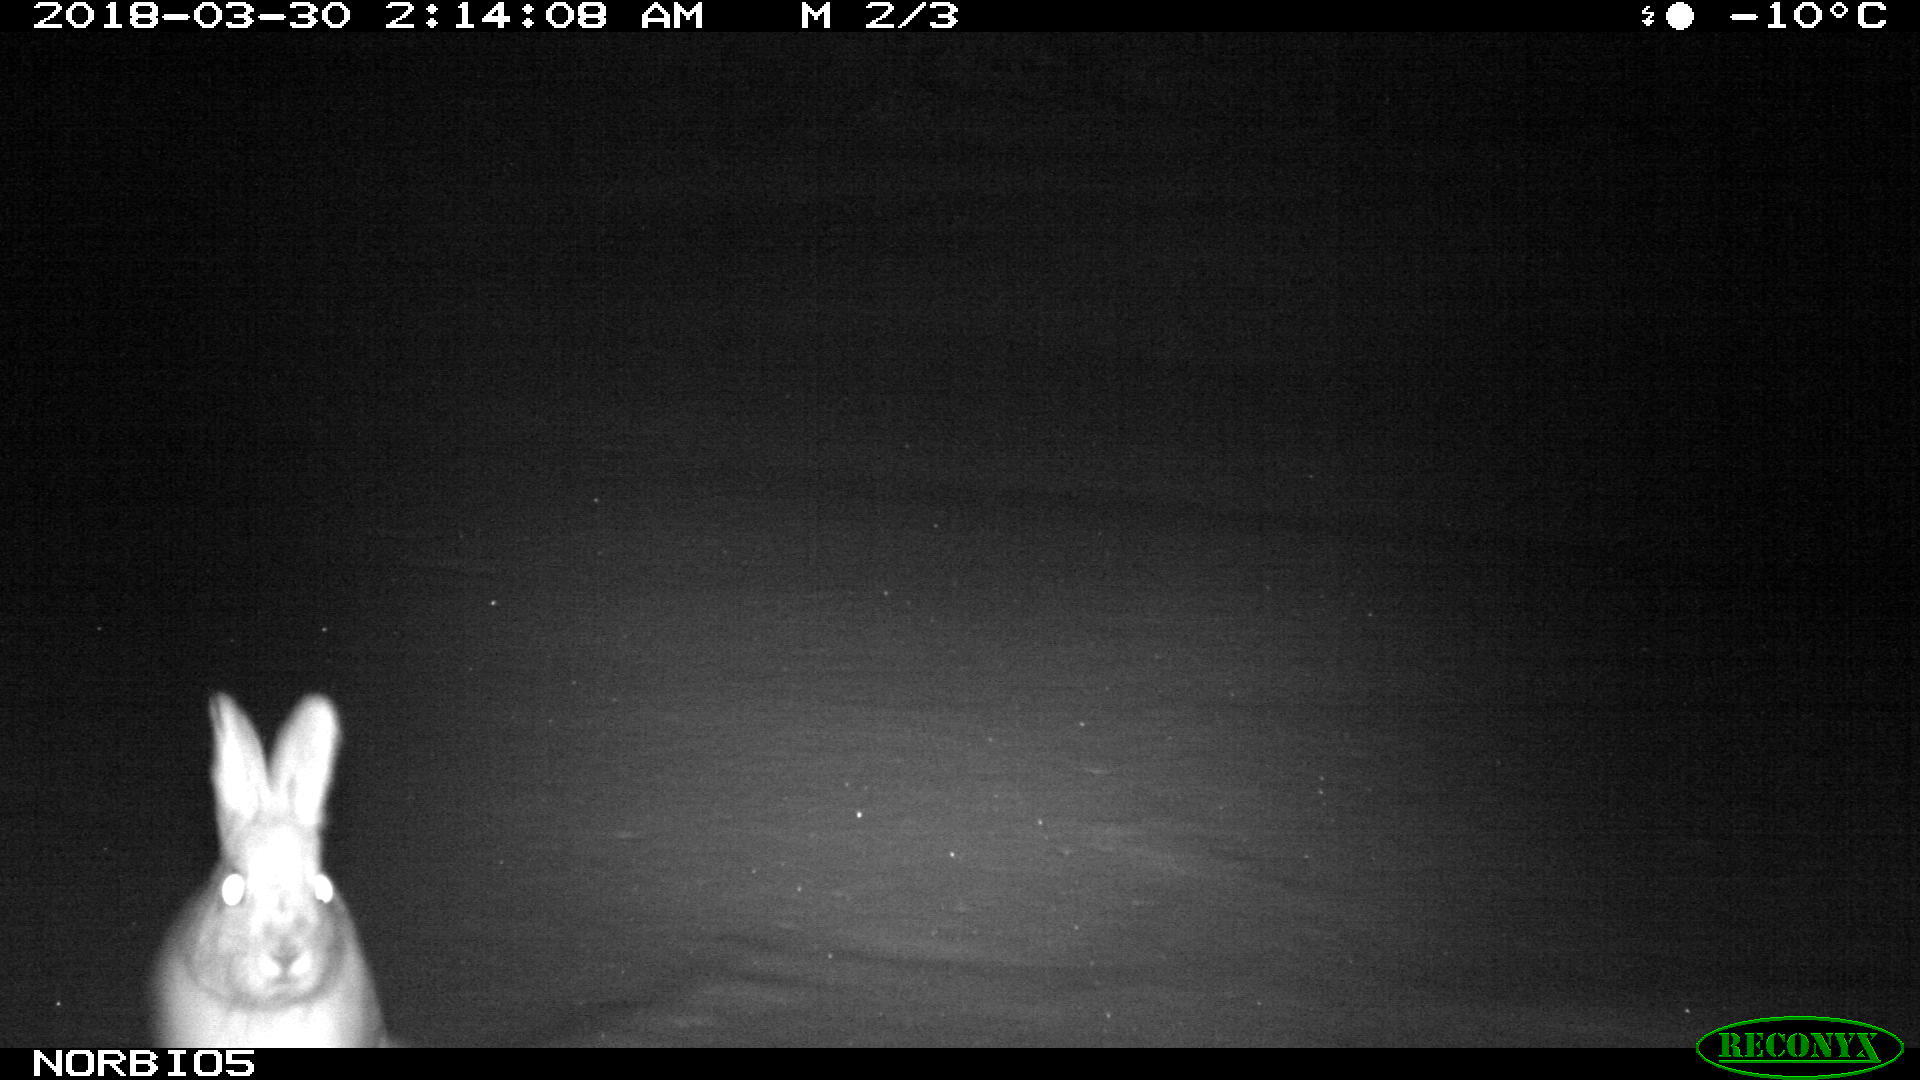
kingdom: Animalia
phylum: Chordata
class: Mammalia
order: Lagomorpha
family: Leporidae
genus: Lepus
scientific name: Lepus americanus
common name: Snowshoe hare
